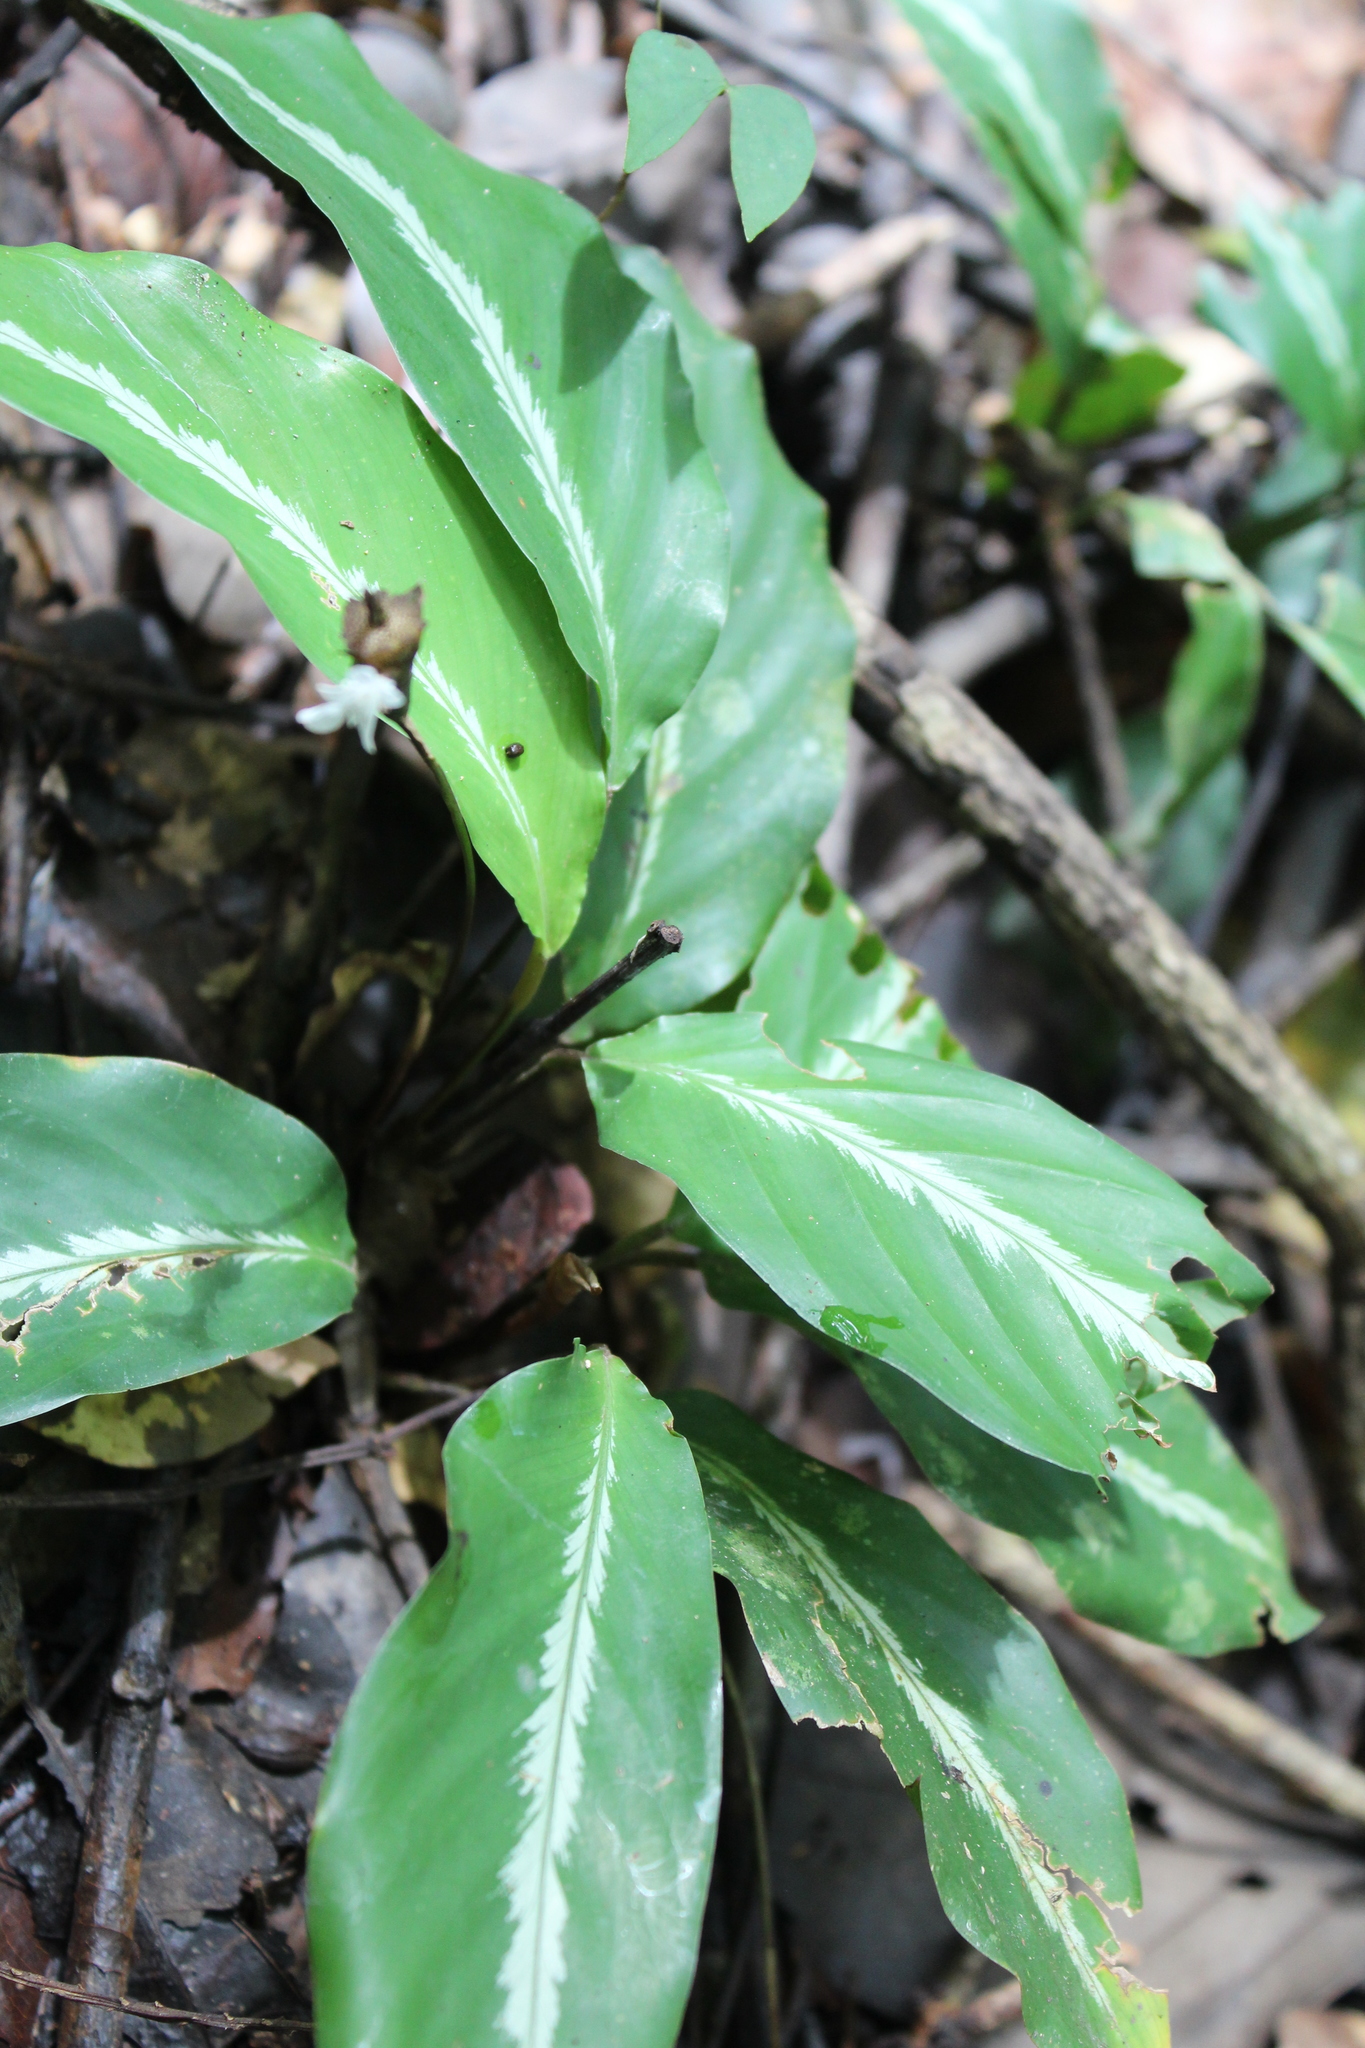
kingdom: Plantae
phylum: Tracheophyta
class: Liliopsida
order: Zingiberales
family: Marantaceae
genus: Goeppertia
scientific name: Goeppertia micans
